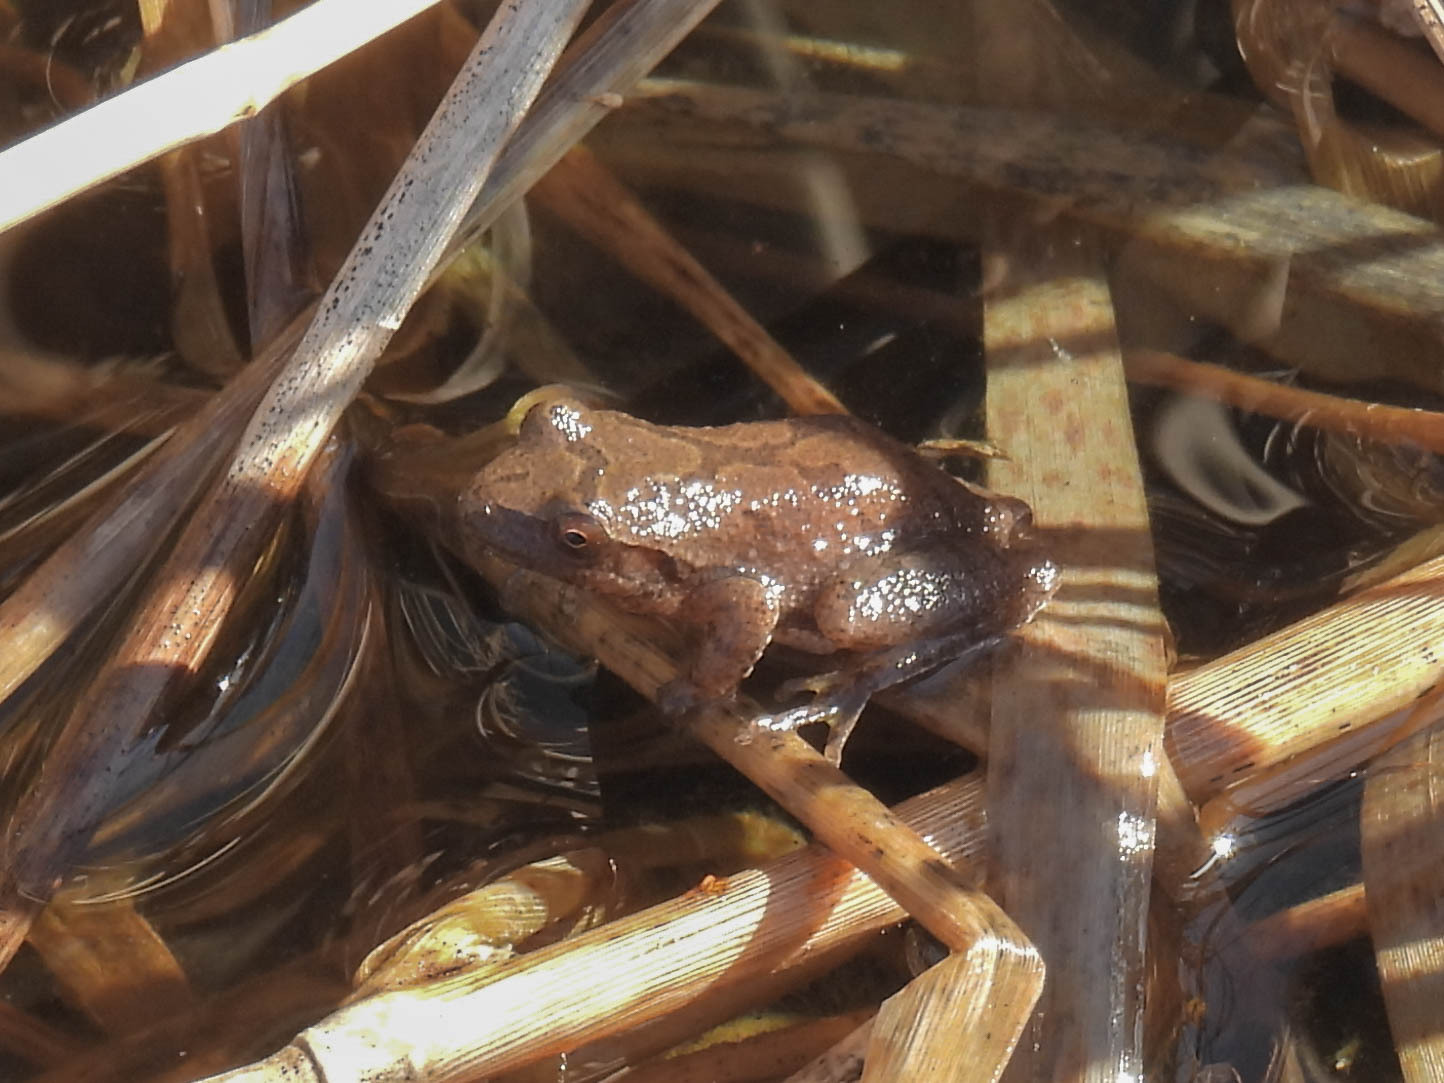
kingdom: Animalia
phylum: Chordata
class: Amphibia
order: Anura
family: Hylidae
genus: Pseudacris
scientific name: Pseudacris crucifer
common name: Spring peeper
